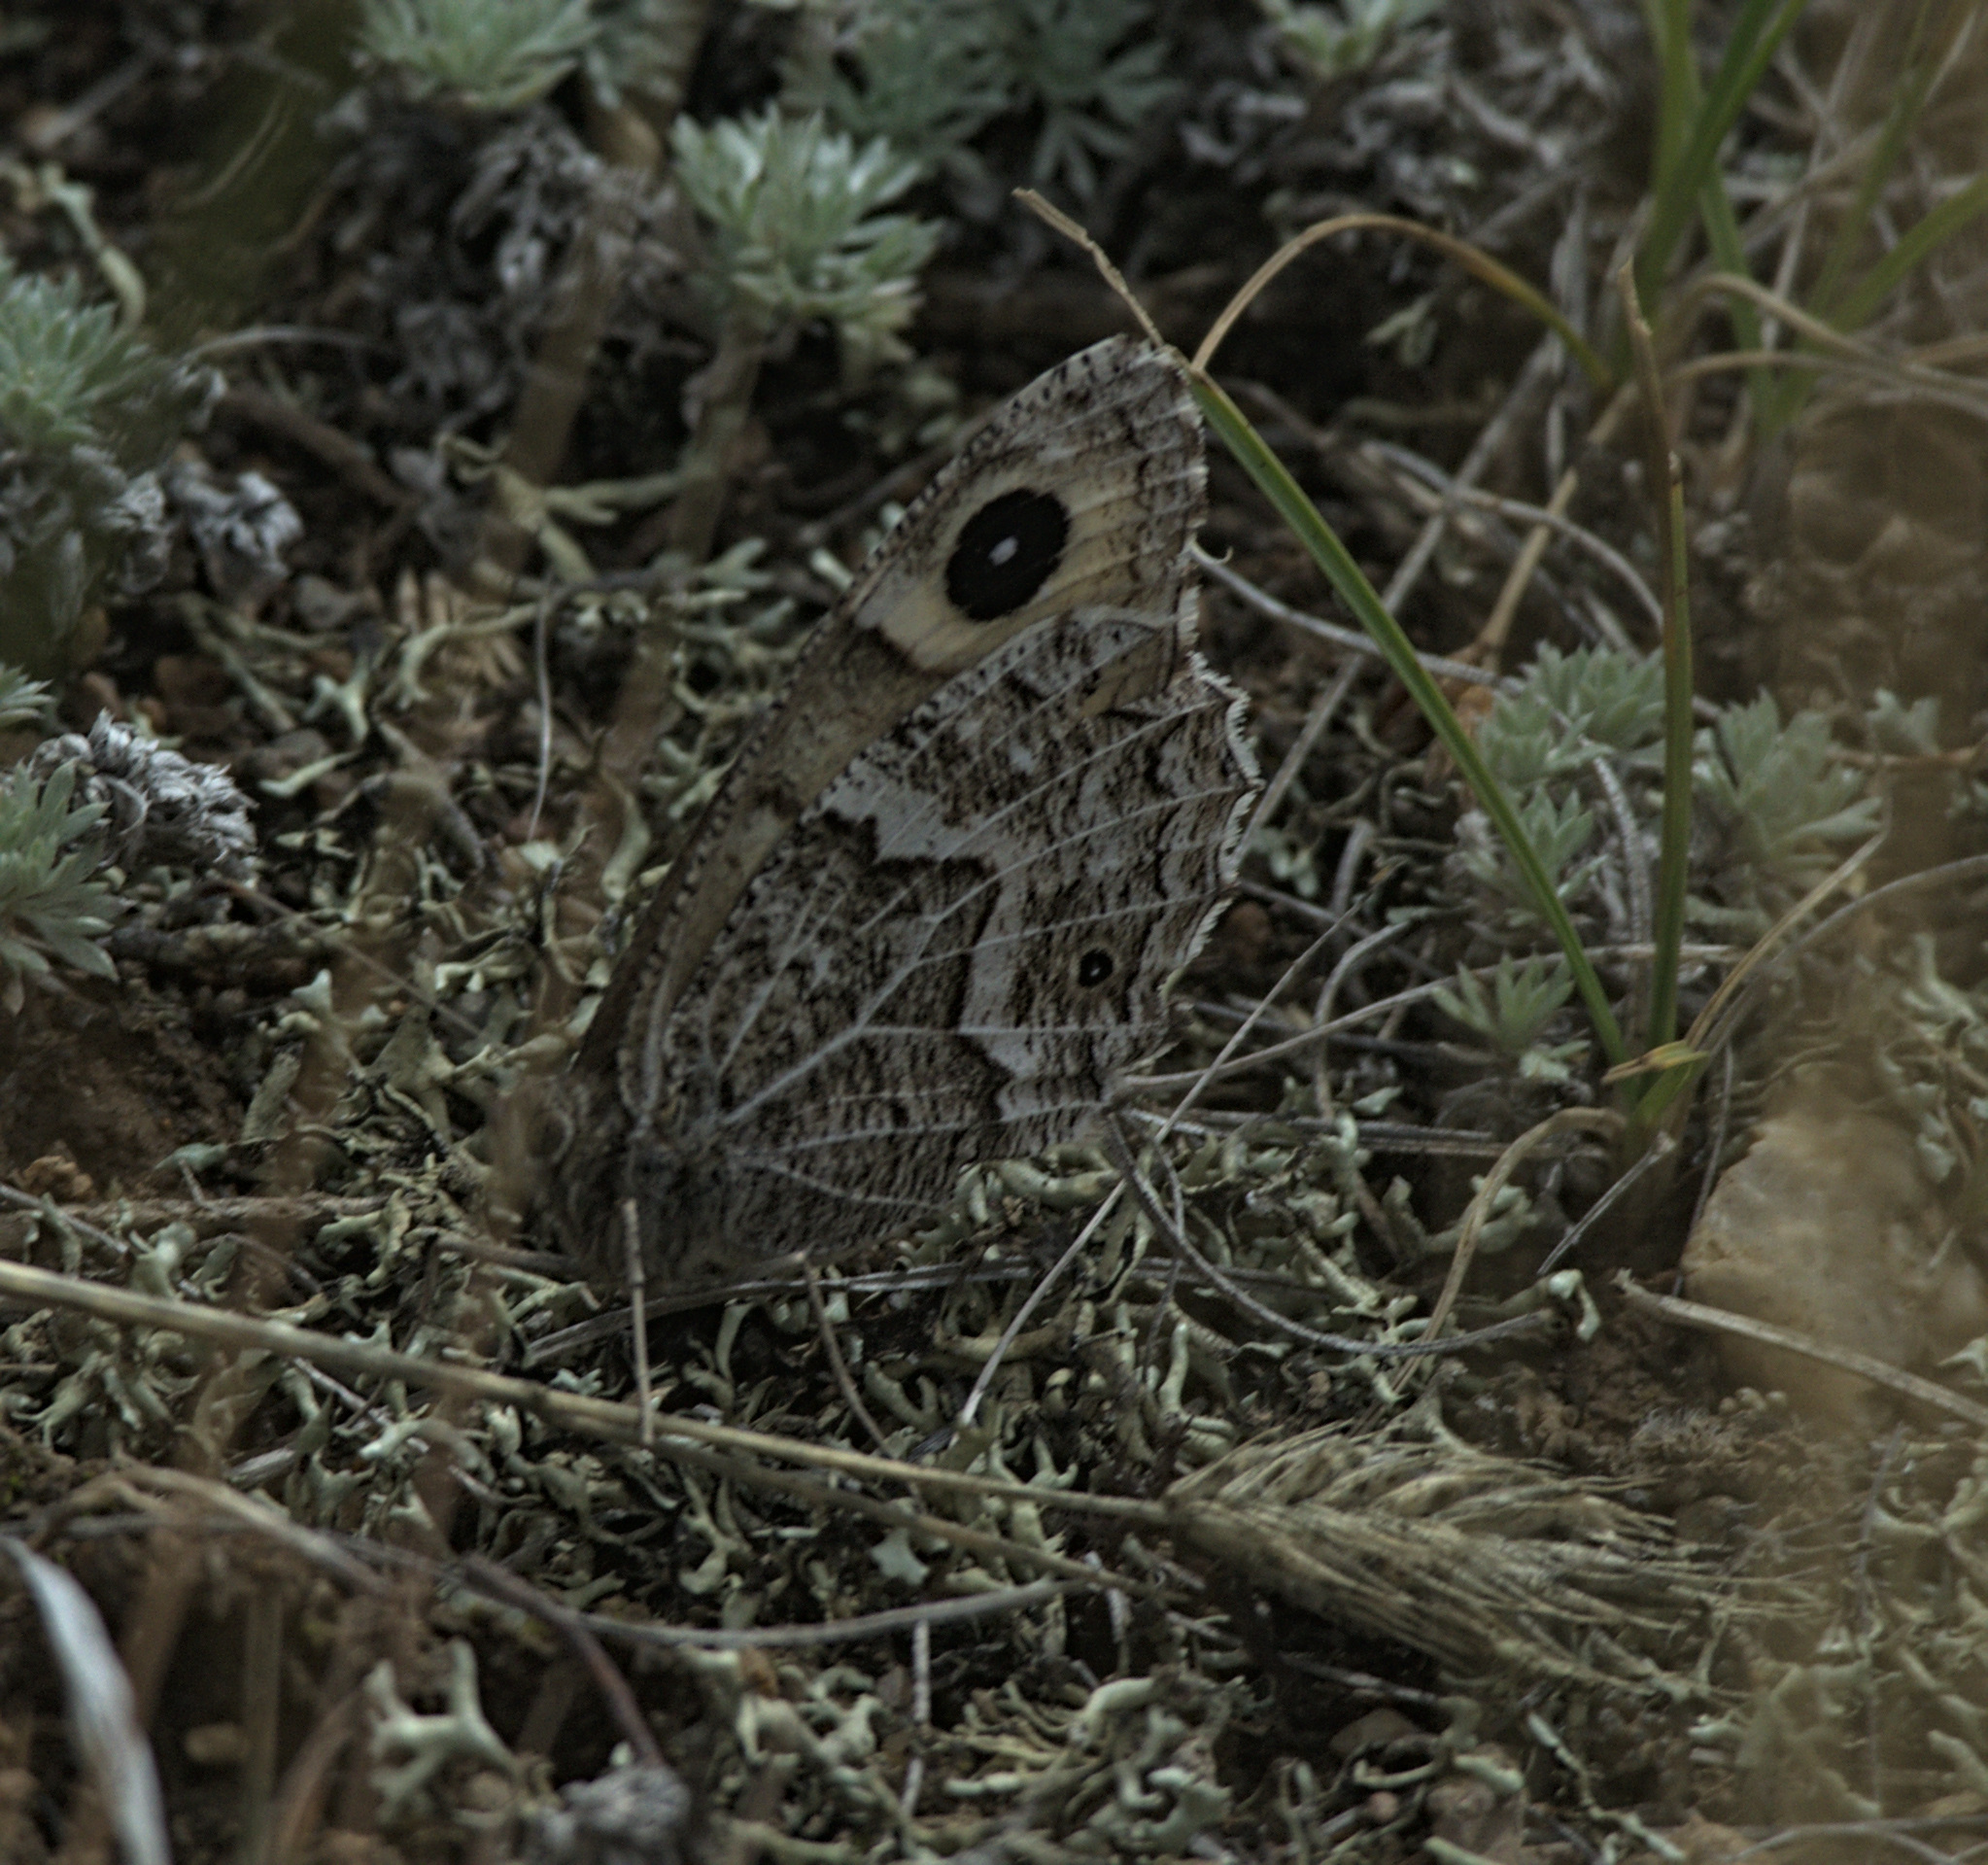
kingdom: Animalia
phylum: Arthropoda
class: Insecta
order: Lepidoptera
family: Nymphalidae
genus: Hipparchia
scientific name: Hipparchia autonoe
